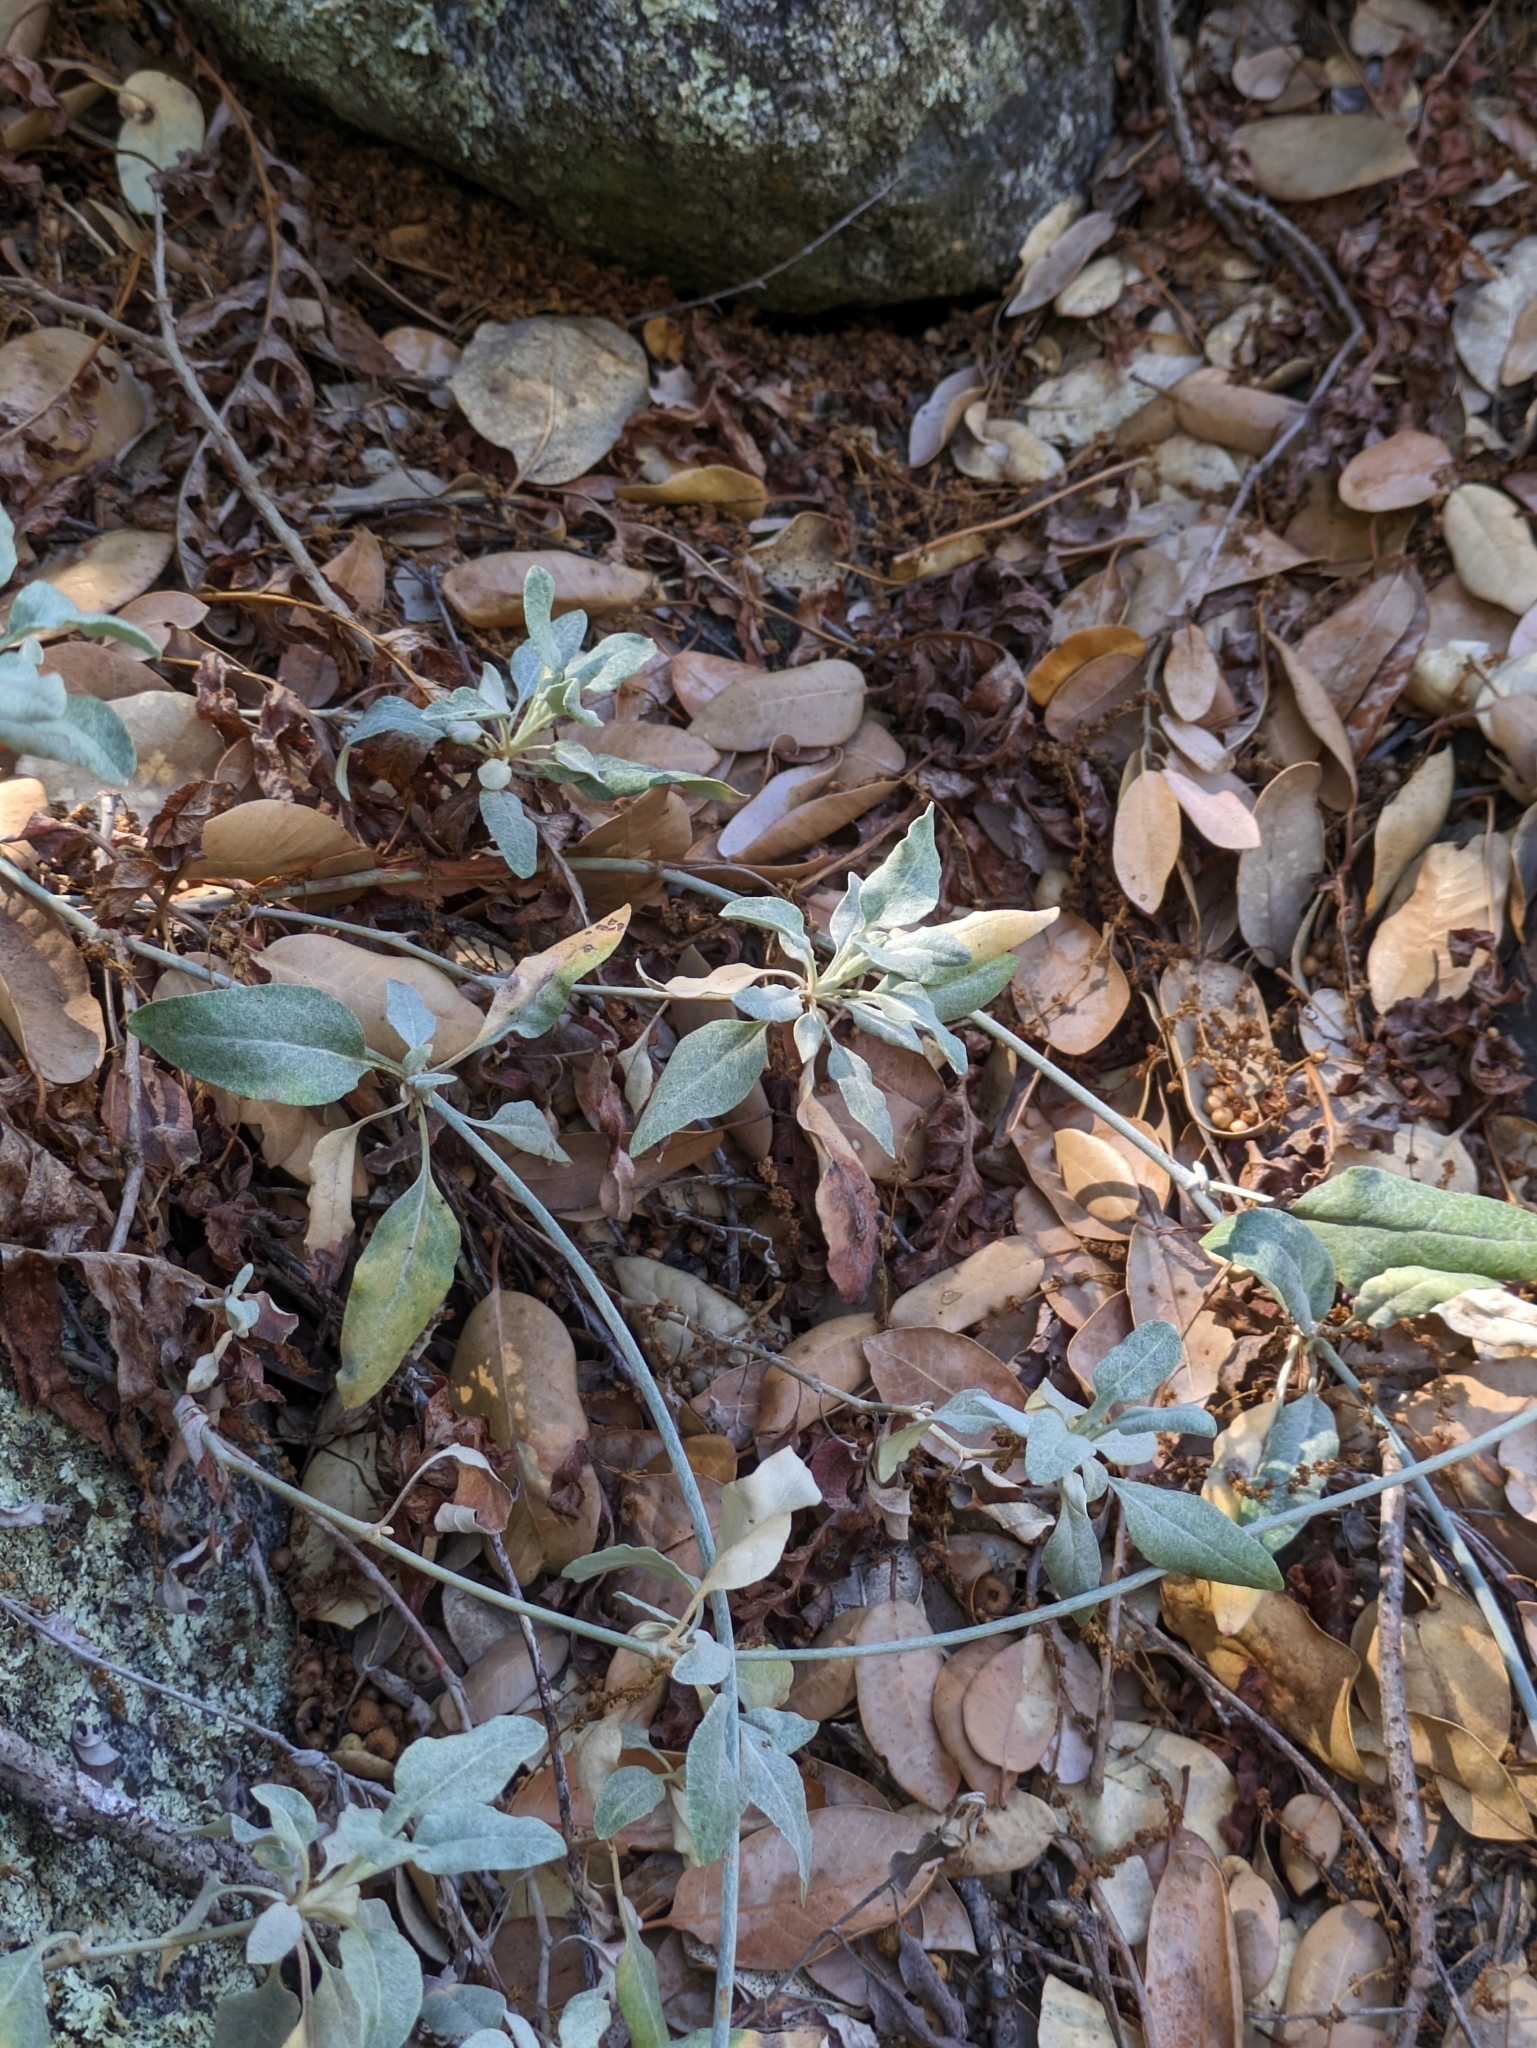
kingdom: Plantae
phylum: Tracheophyta
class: Magnoliopsida
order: Caryophyllales
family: Polygonaceae
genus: Eriogonum
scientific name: Eriogonum elongatum
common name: Long-stem wild buckwheat
